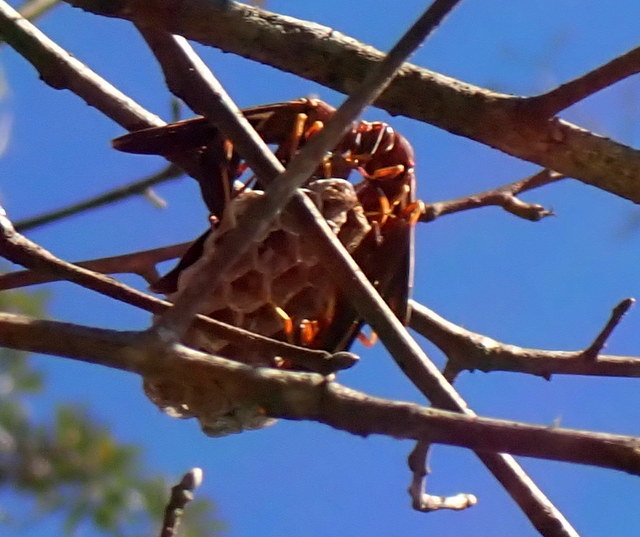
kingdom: Animalia
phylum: Arthropoda
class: Insecta
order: Hymenoptera
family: Eumenidae
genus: Polistes
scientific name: Polistes annularis
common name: Ringed paper wasp
